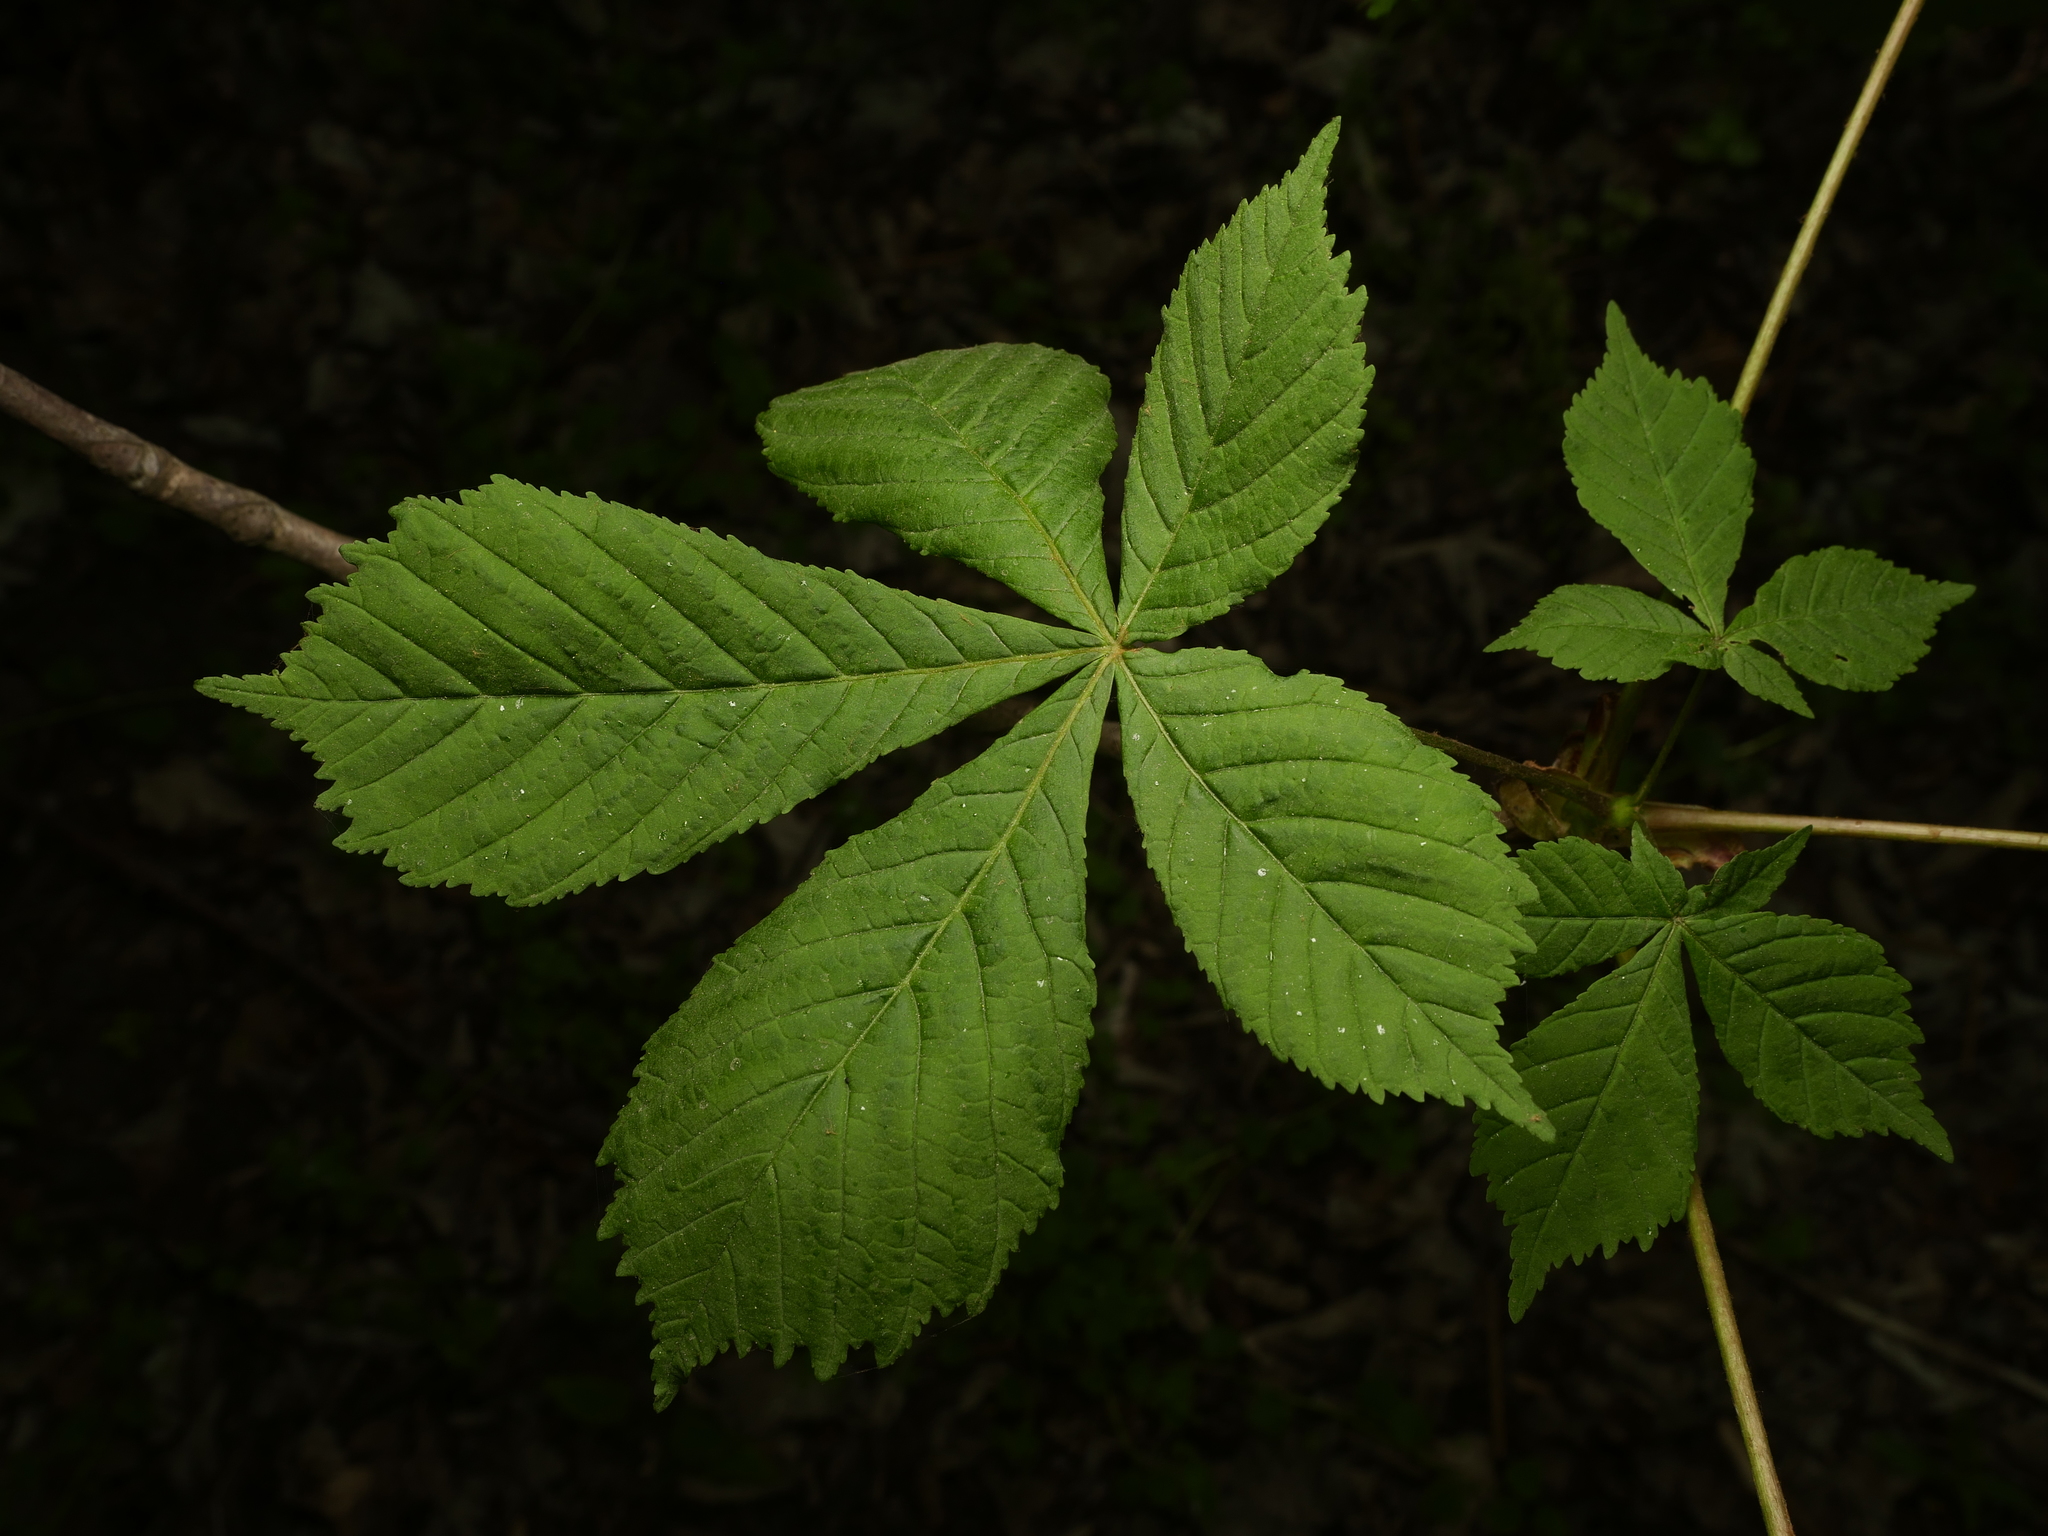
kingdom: Plantae
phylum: Tracheophyta
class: Magnoliopsida
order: Sapindales
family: Sapindaceae
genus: Aesculus
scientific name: Aesculus hippocastanum
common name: Horse-chestnut
